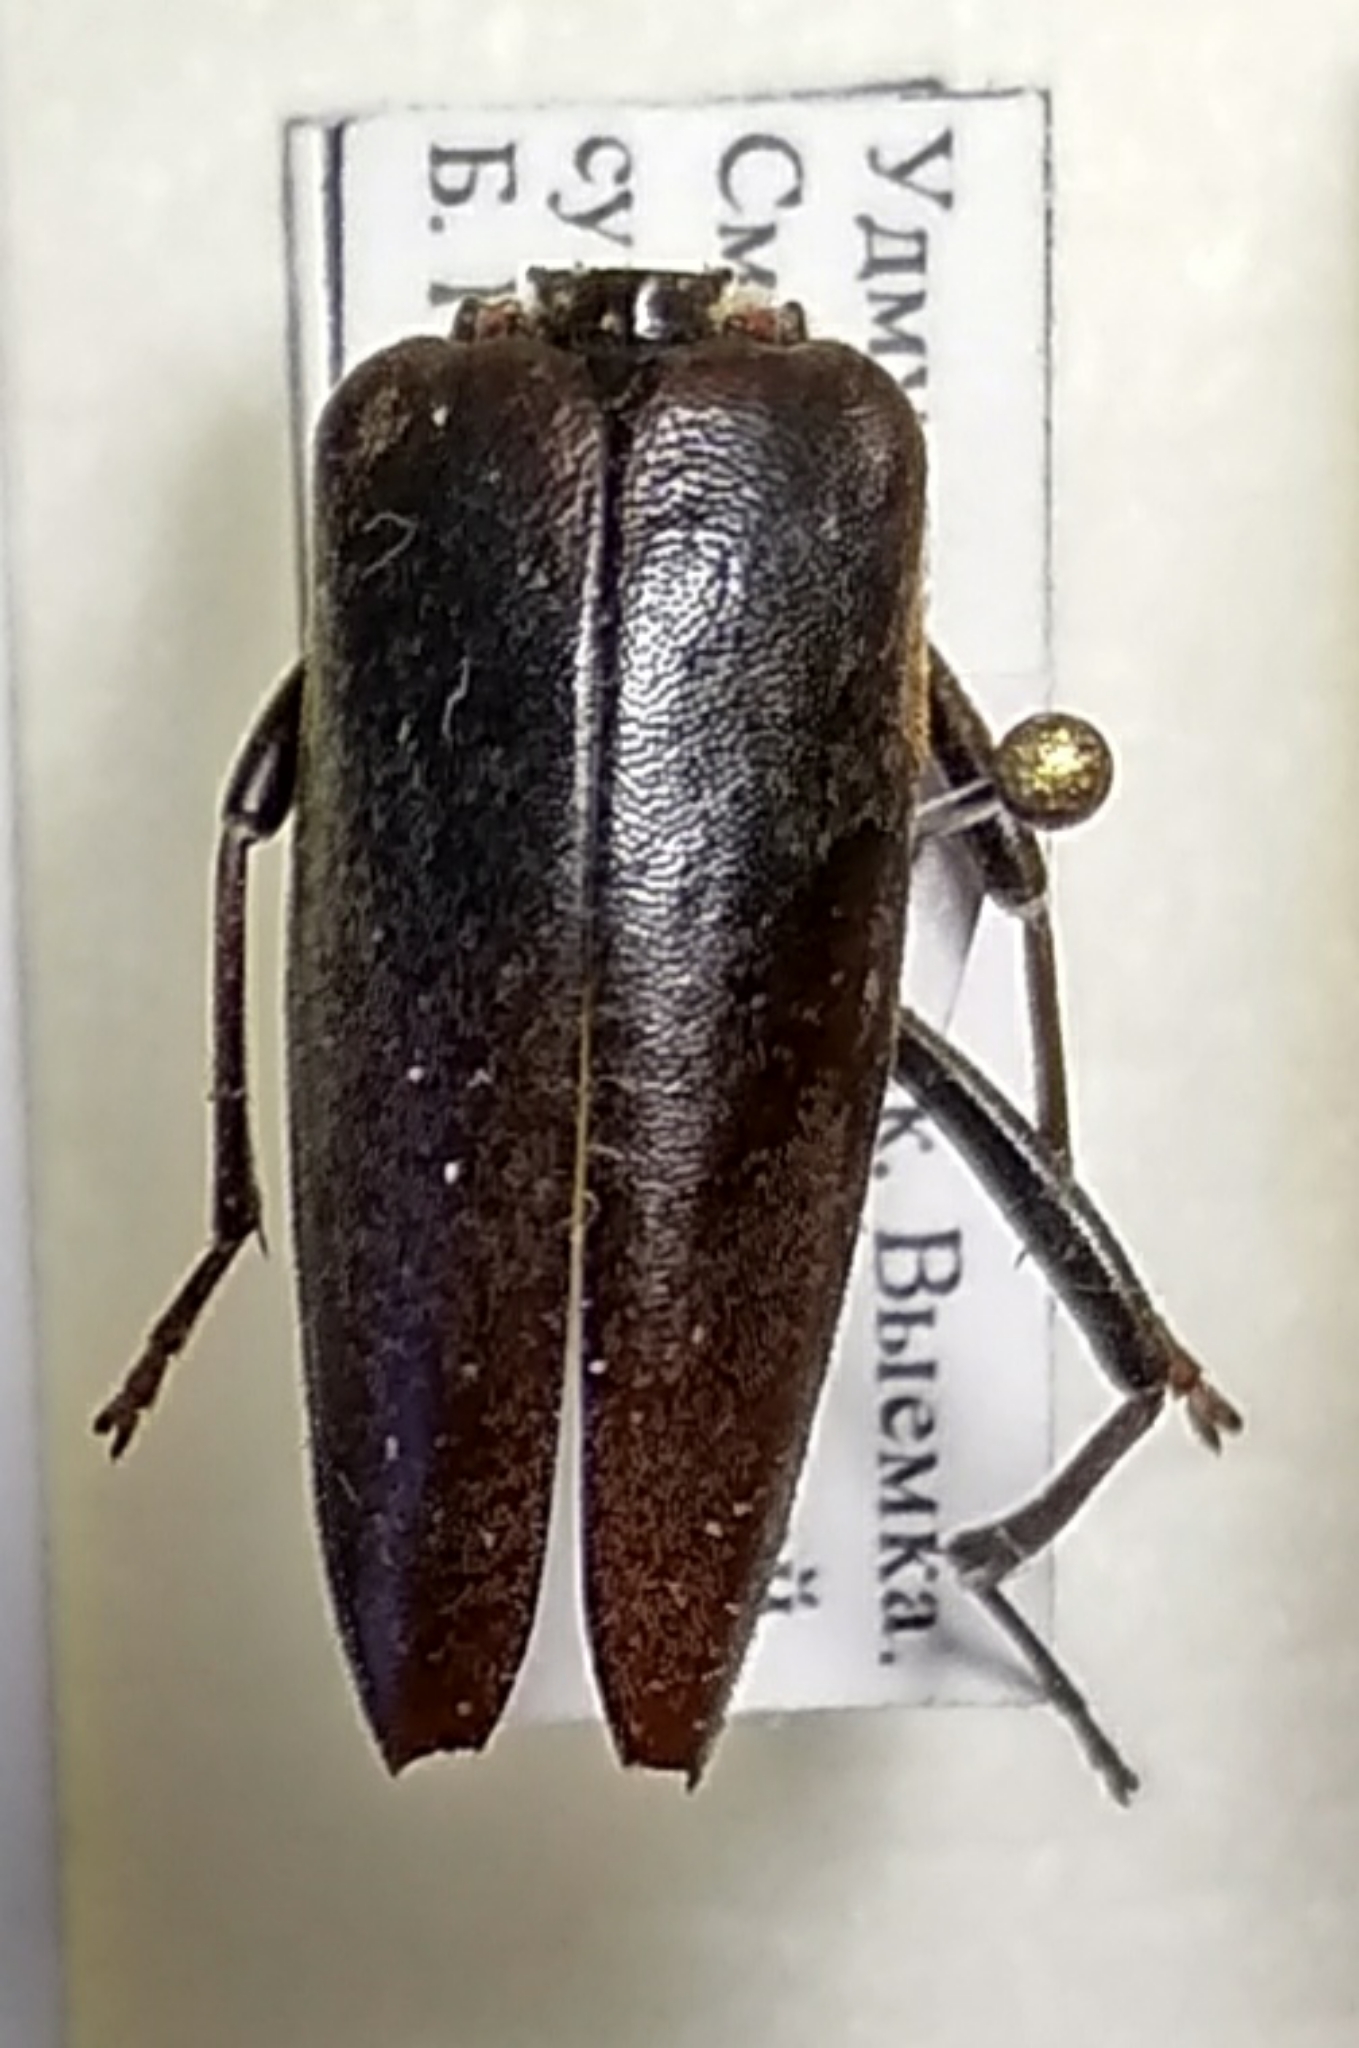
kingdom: Animalia
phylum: Arthropoda
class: Insecta
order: Coleoptera
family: Cerambycidae
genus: Leptura
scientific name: Leptura thoracica
